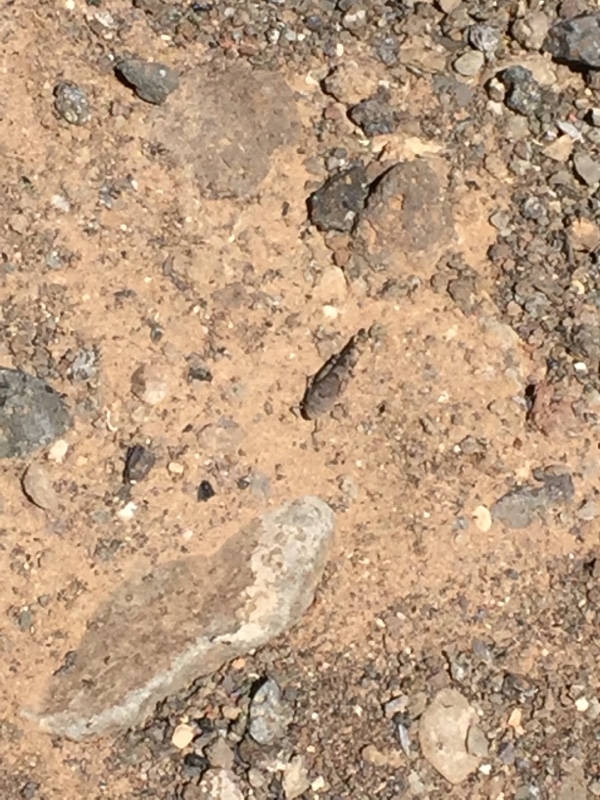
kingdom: Animalia
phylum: Arthropoda
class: Insecta
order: Orthoptera
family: Acrididae
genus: Sphingonotus
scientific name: Sphingonotus fuerteventurae
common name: Fuerteventura sand grasshopper
